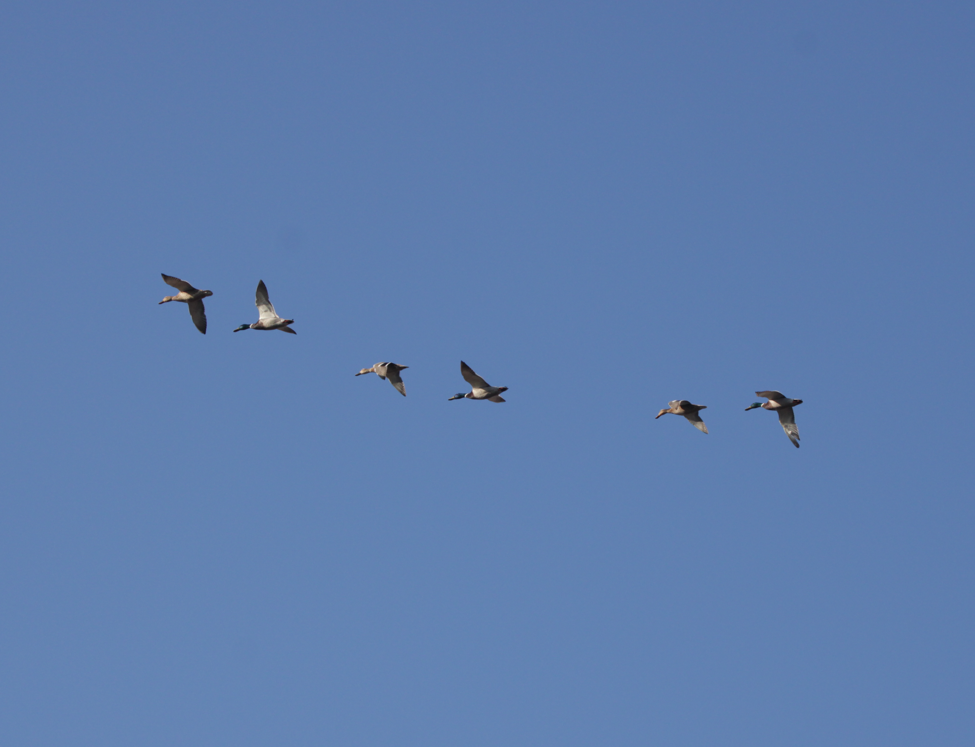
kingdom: Animalia
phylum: Chordata
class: Aves
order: Anseriformes
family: Anatidae
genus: Anas
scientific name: Anas platyrhynchos
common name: Mallard
